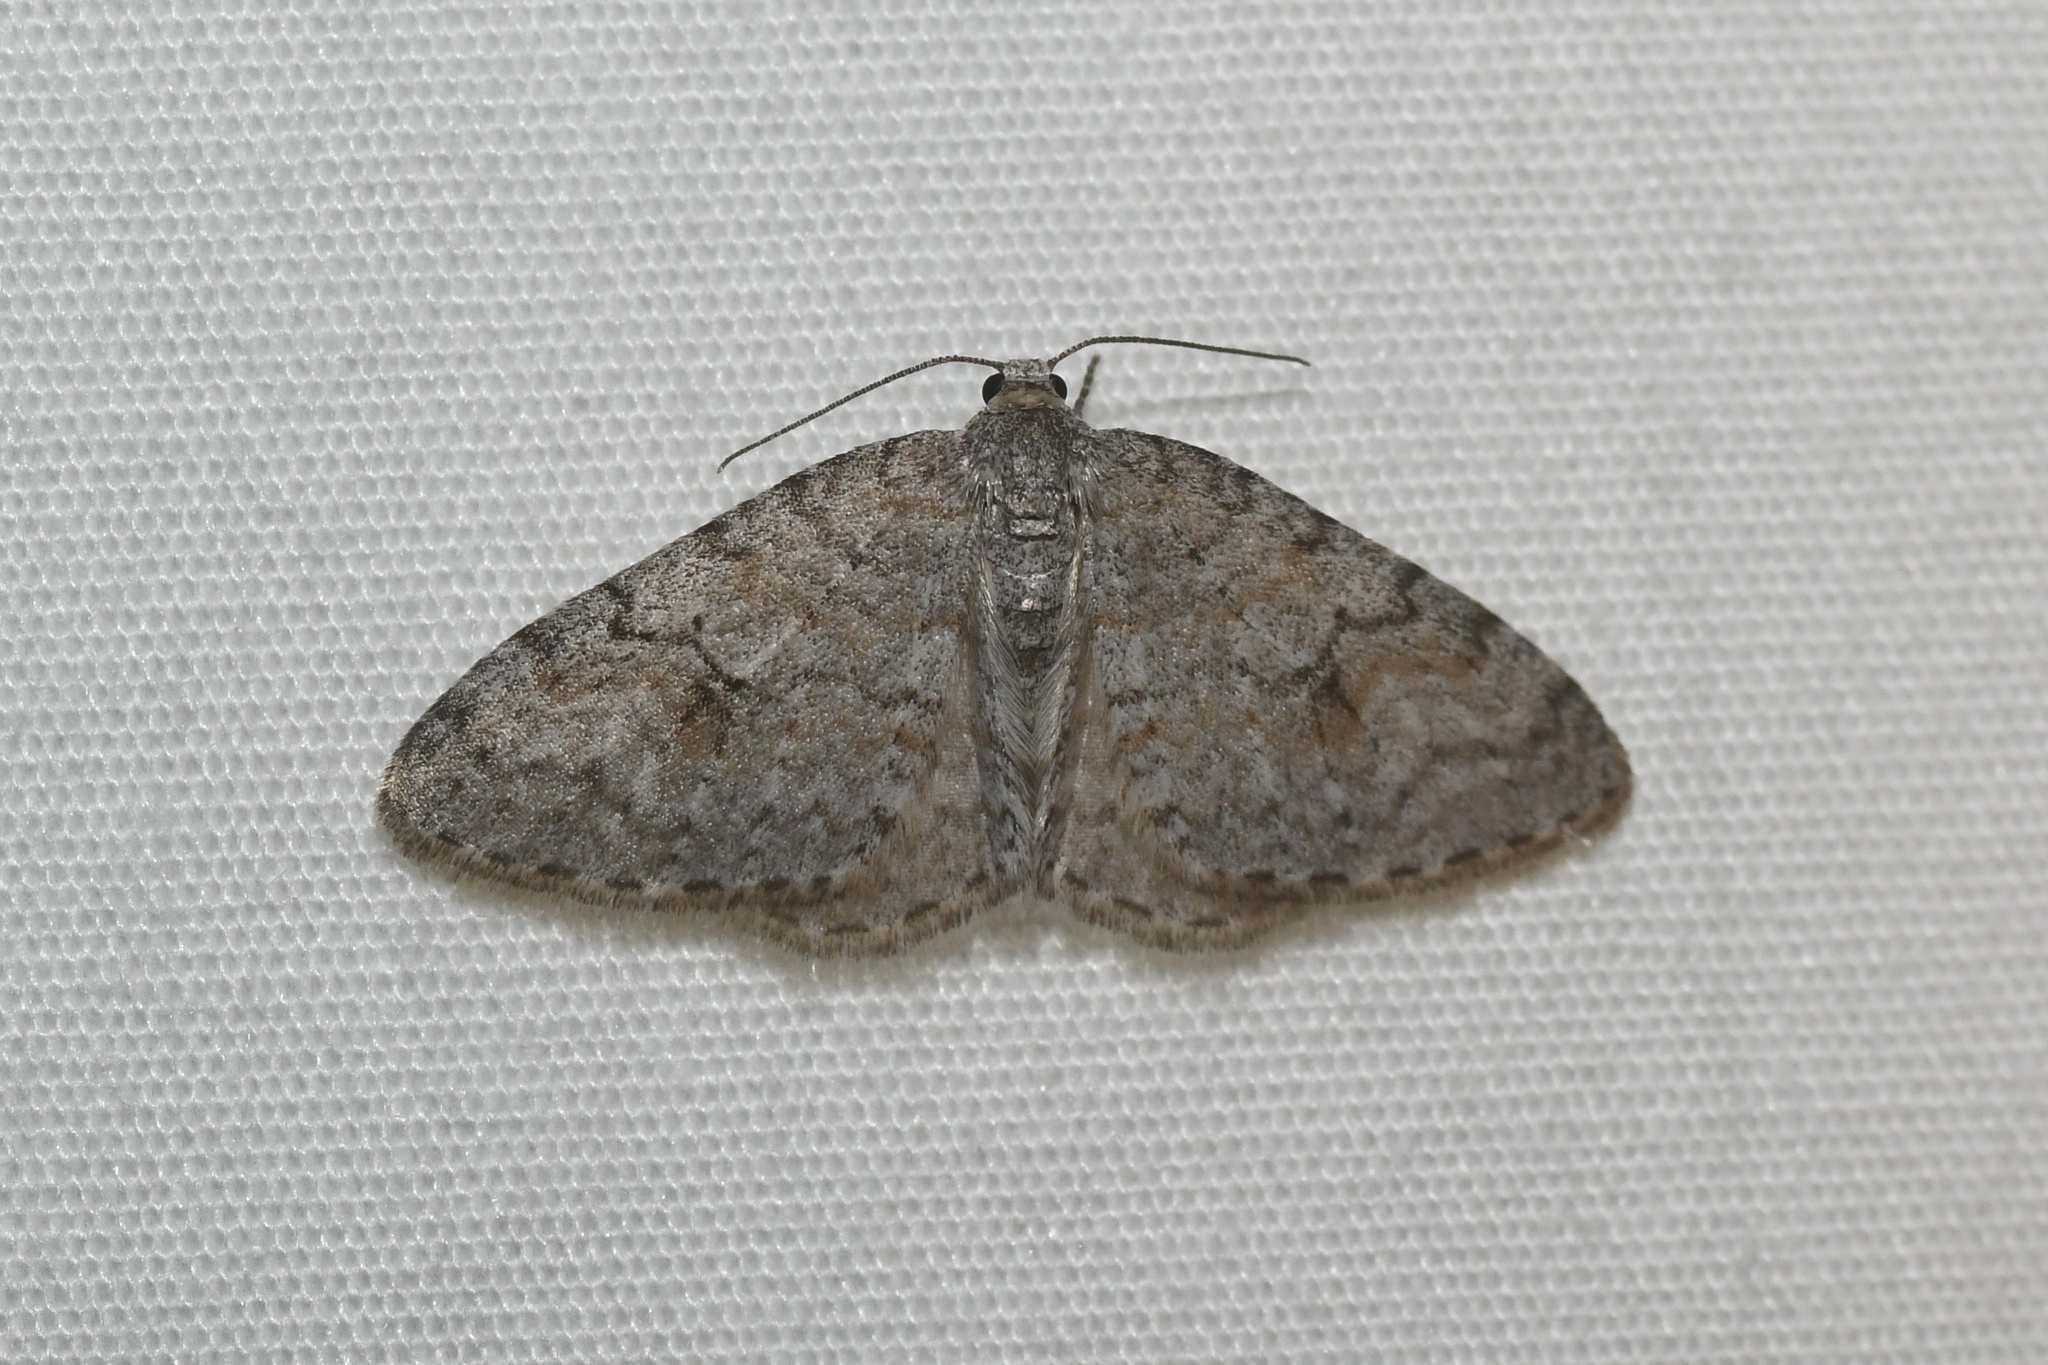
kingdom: Animalia
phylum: Arthropoda
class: Insecta
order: Lepidoptera
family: Geometridae
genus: Venusia
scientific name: Venusia comptaria
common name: Brown-shaded carpet
